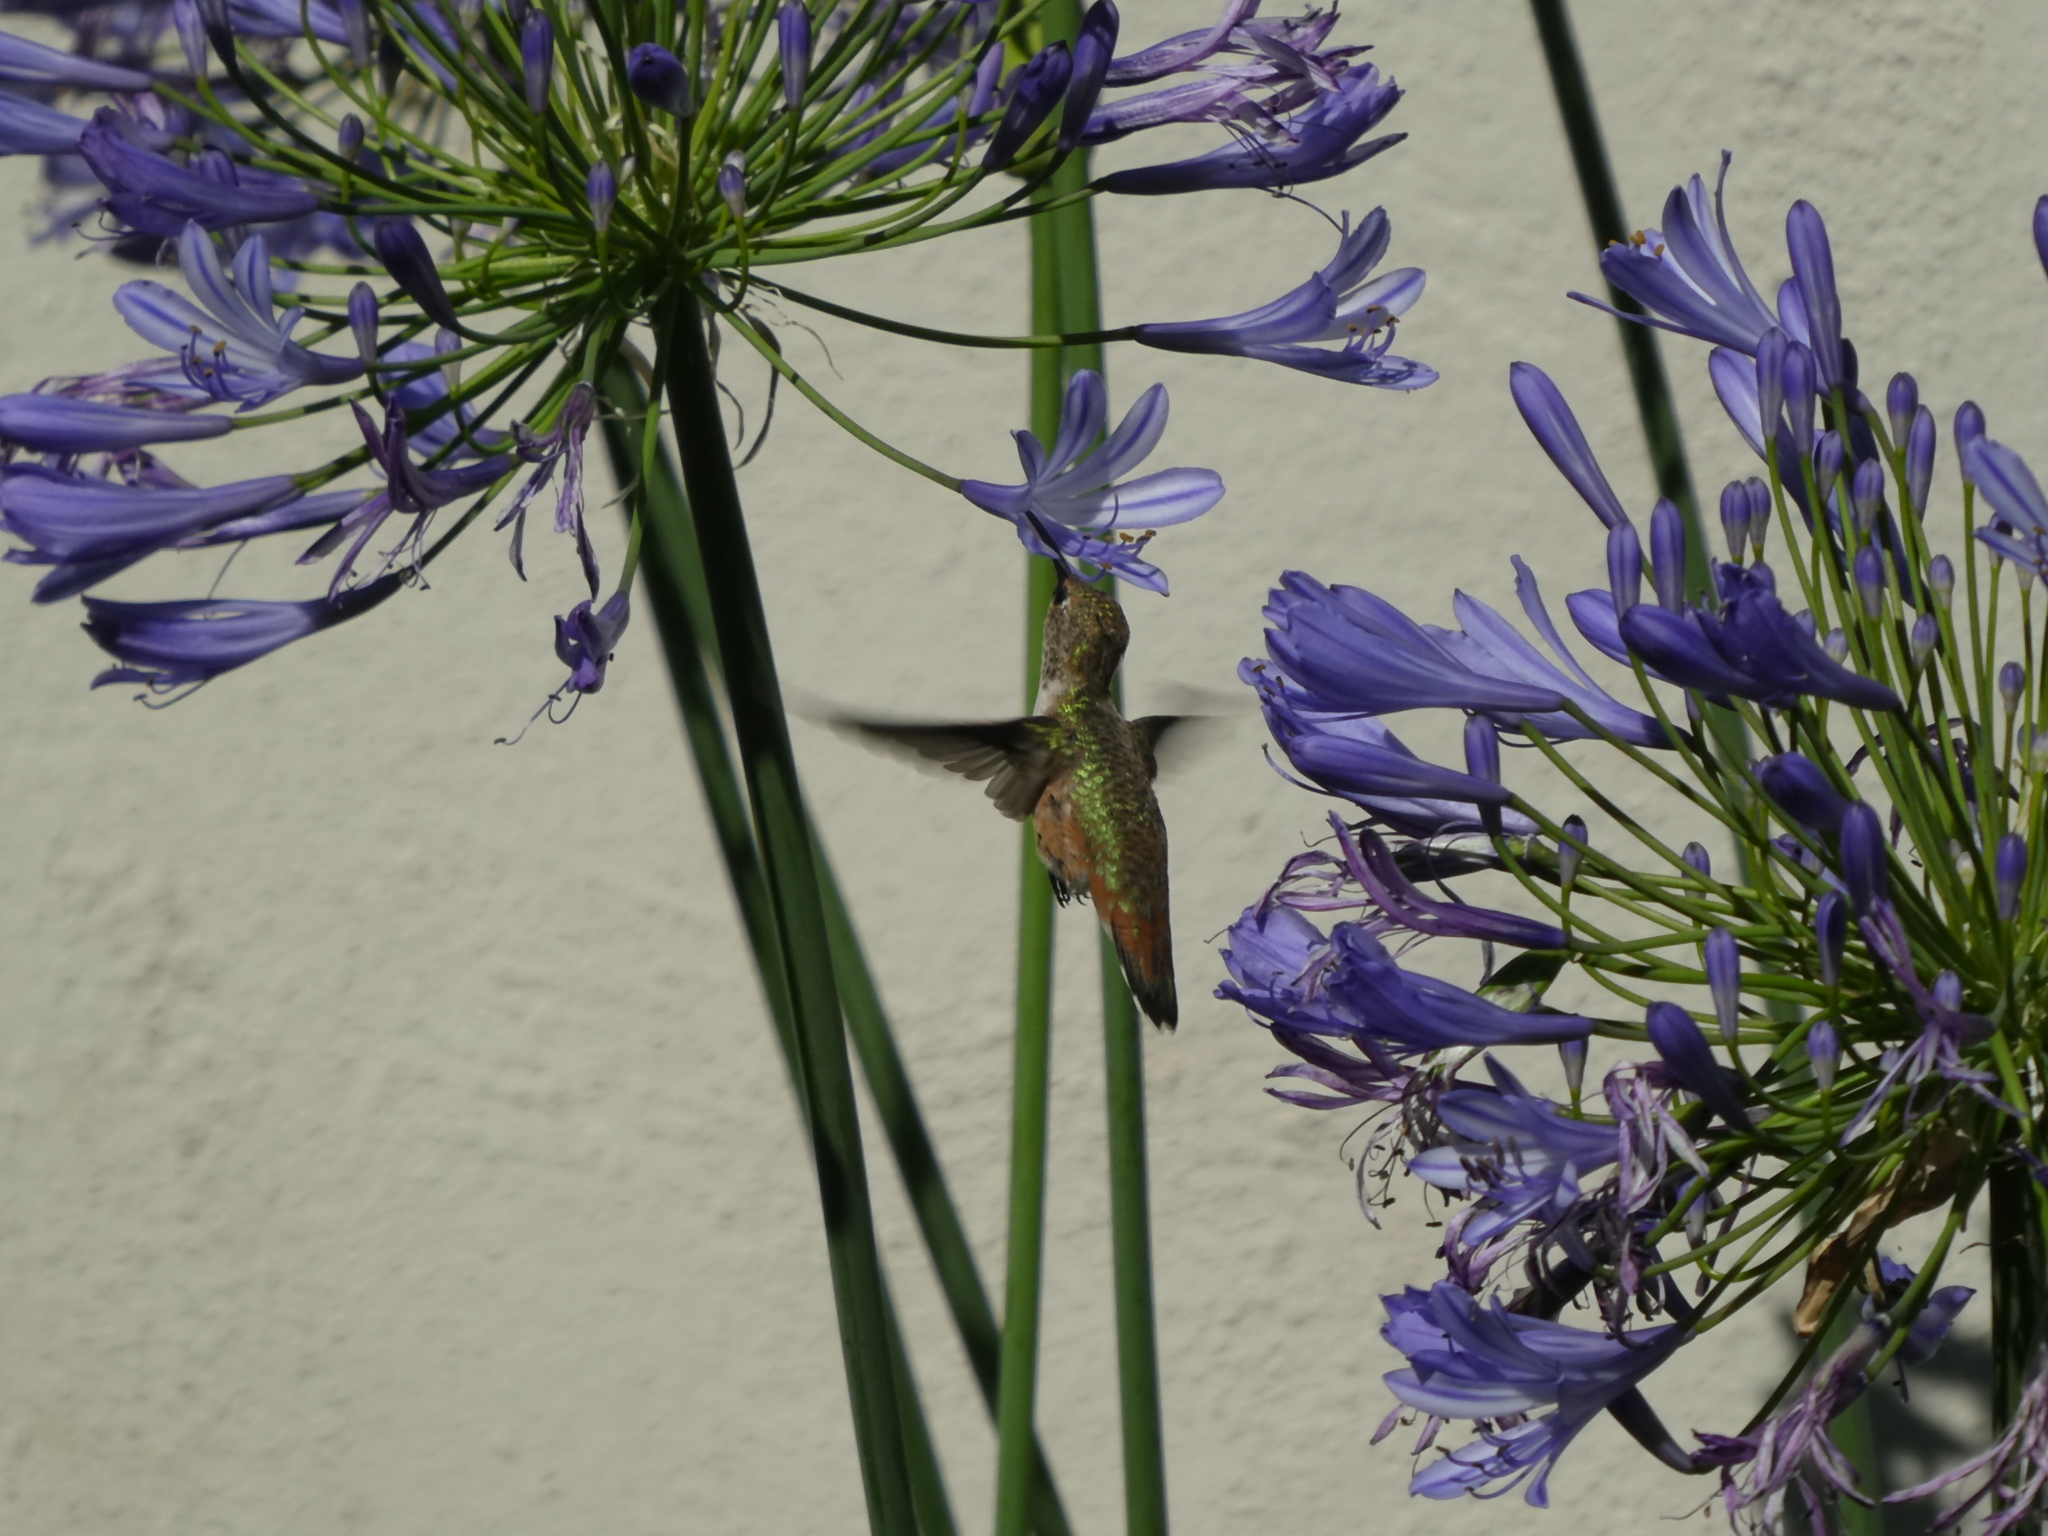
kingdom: Animalia
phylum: Chordata
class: Aves
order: Apodiformes
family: Trochilidae
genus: Selasphorus
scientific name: Selasphorus
